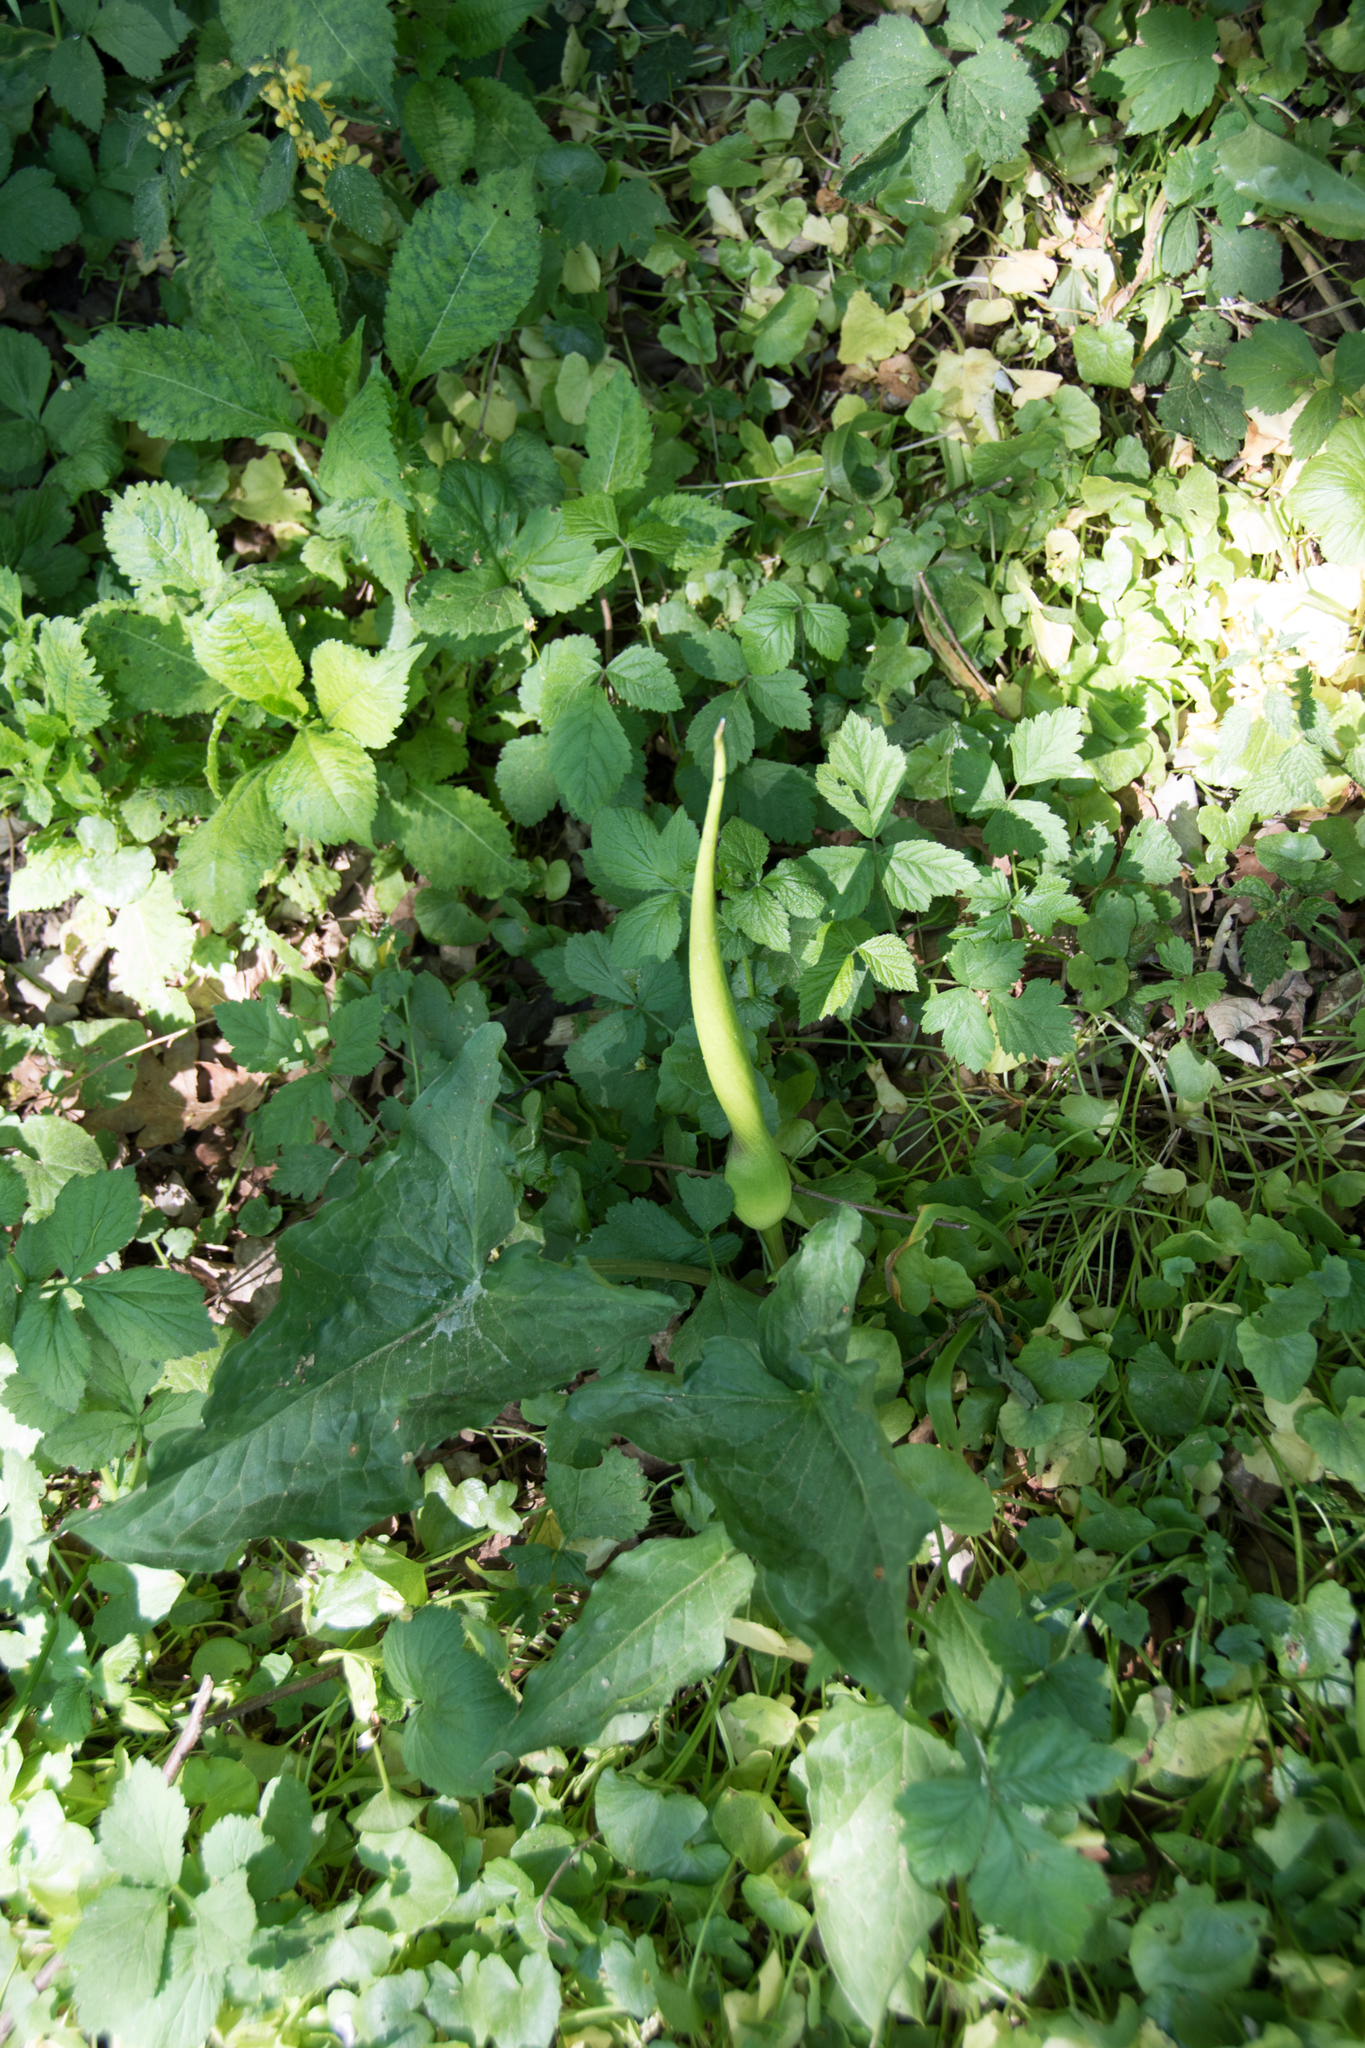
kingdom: Plantae
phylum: Tracheophyta
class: Liliopsida
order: Alismatales
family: Araceae
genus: Arum
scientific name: Arum maculatum
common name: Lords-and-ladies
